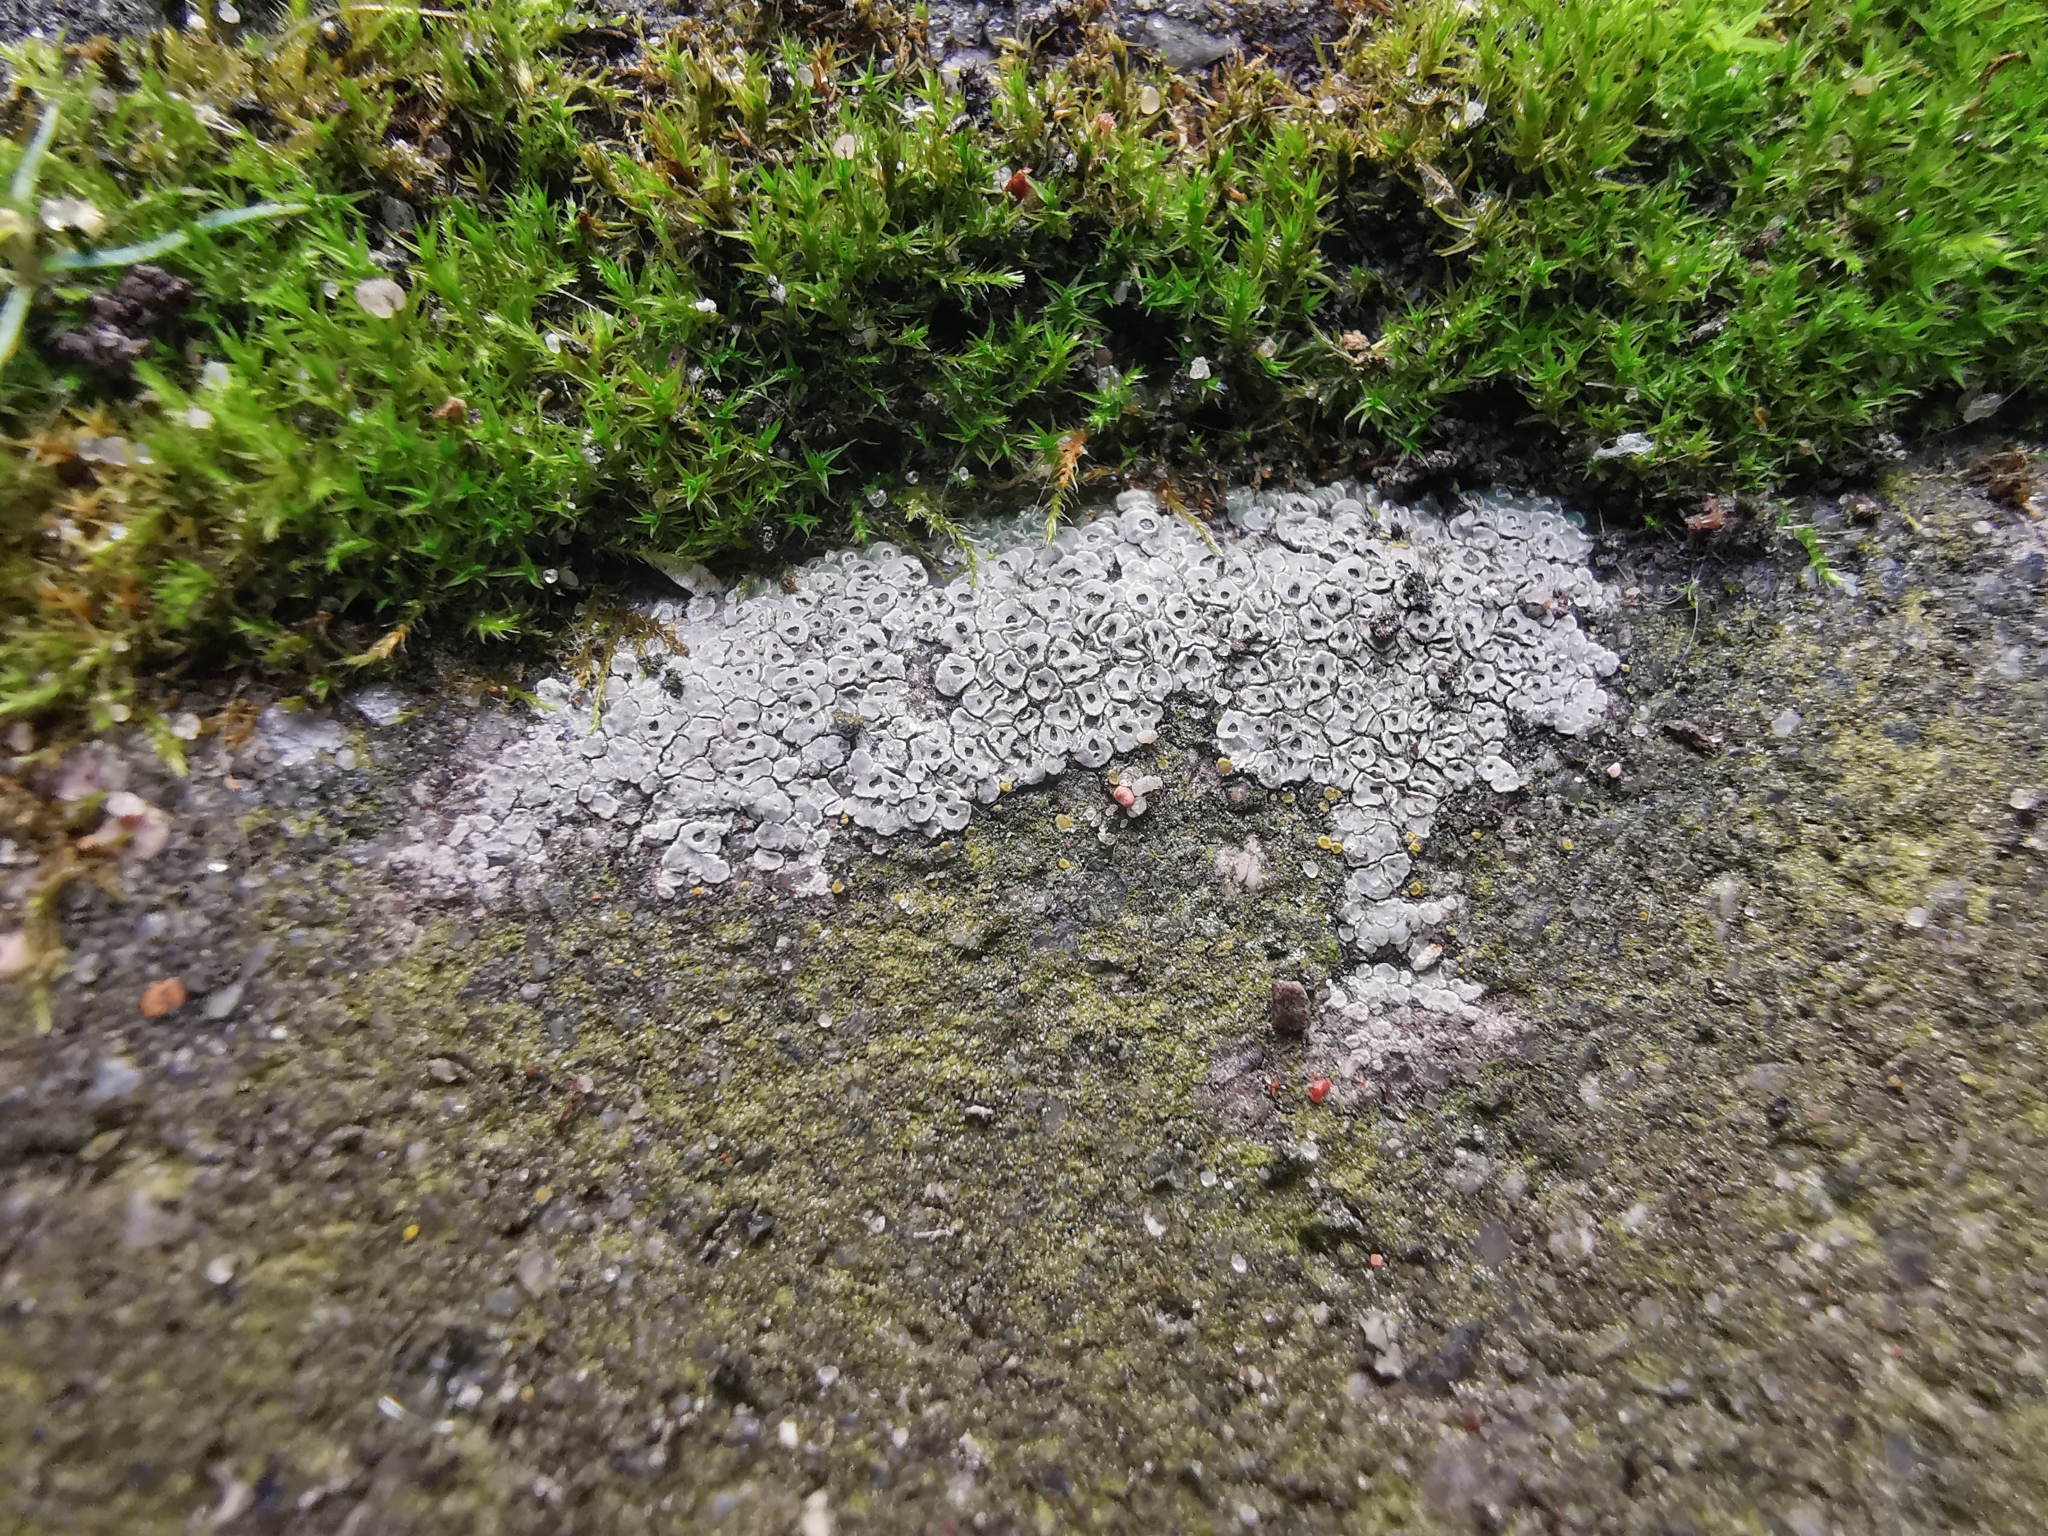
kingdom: Fungi
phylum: Ascomycota
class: Lecanoromycetes
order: Pertusariales
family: Megasporaceae
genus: Circinaria
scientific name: Circinaria contorta
